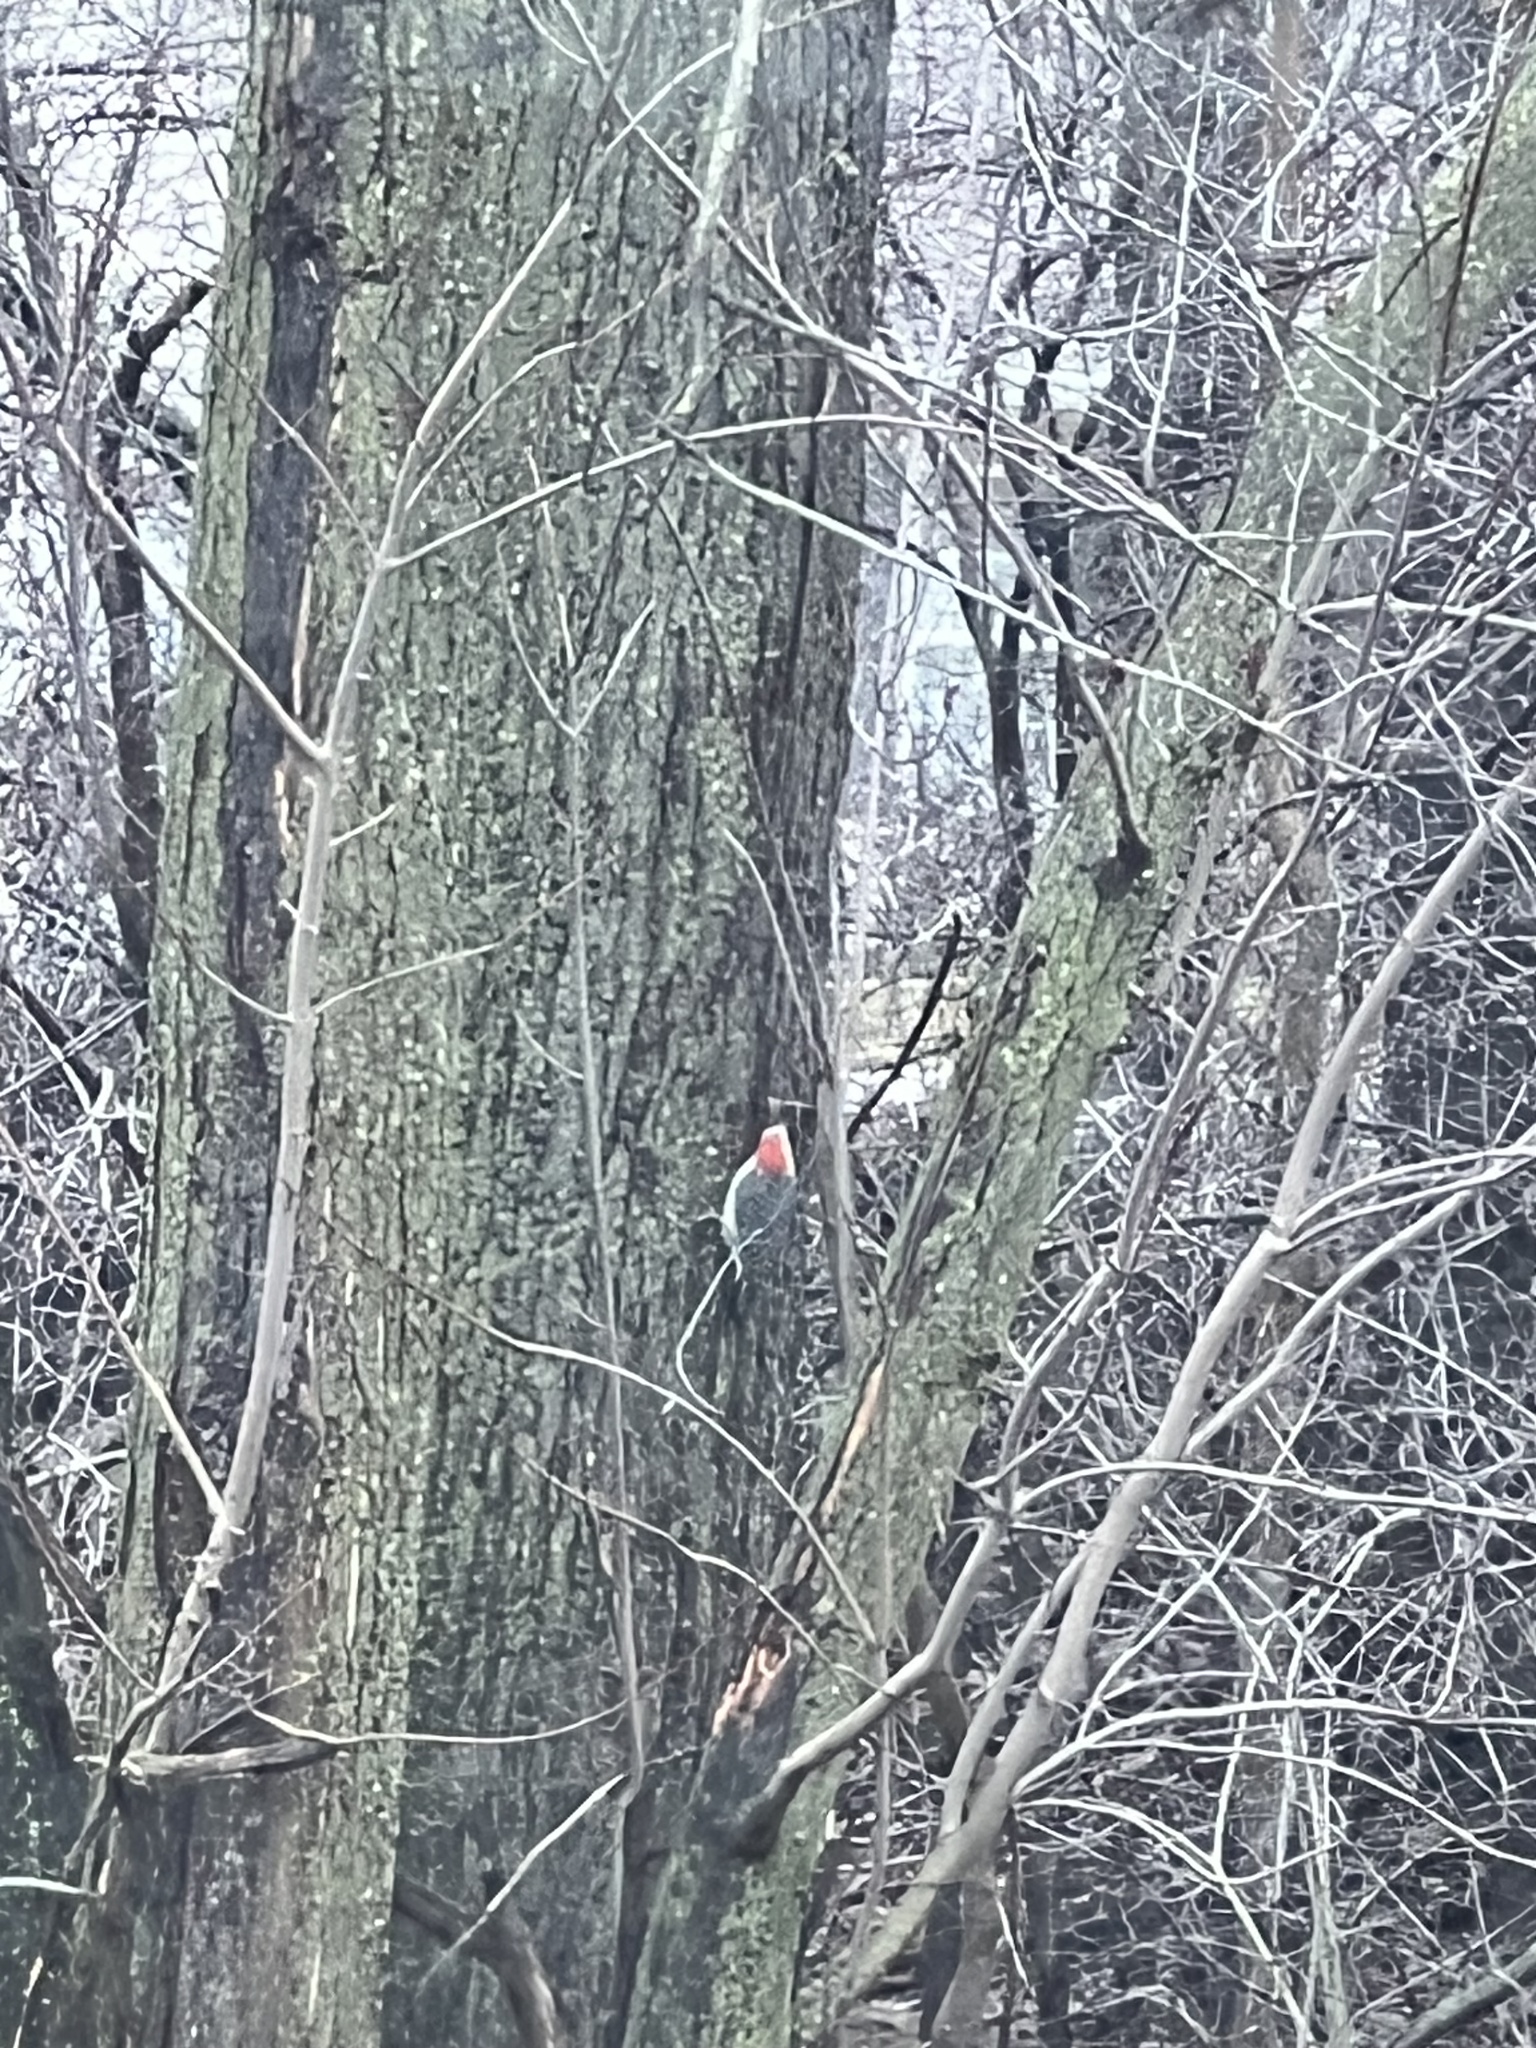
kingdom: Animalia
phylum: Chordata
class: Aves
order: Piciformes
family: Picidae
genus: Melanerpes
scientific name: Melanerpes carolinus
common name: Red-bellied woodpecker
